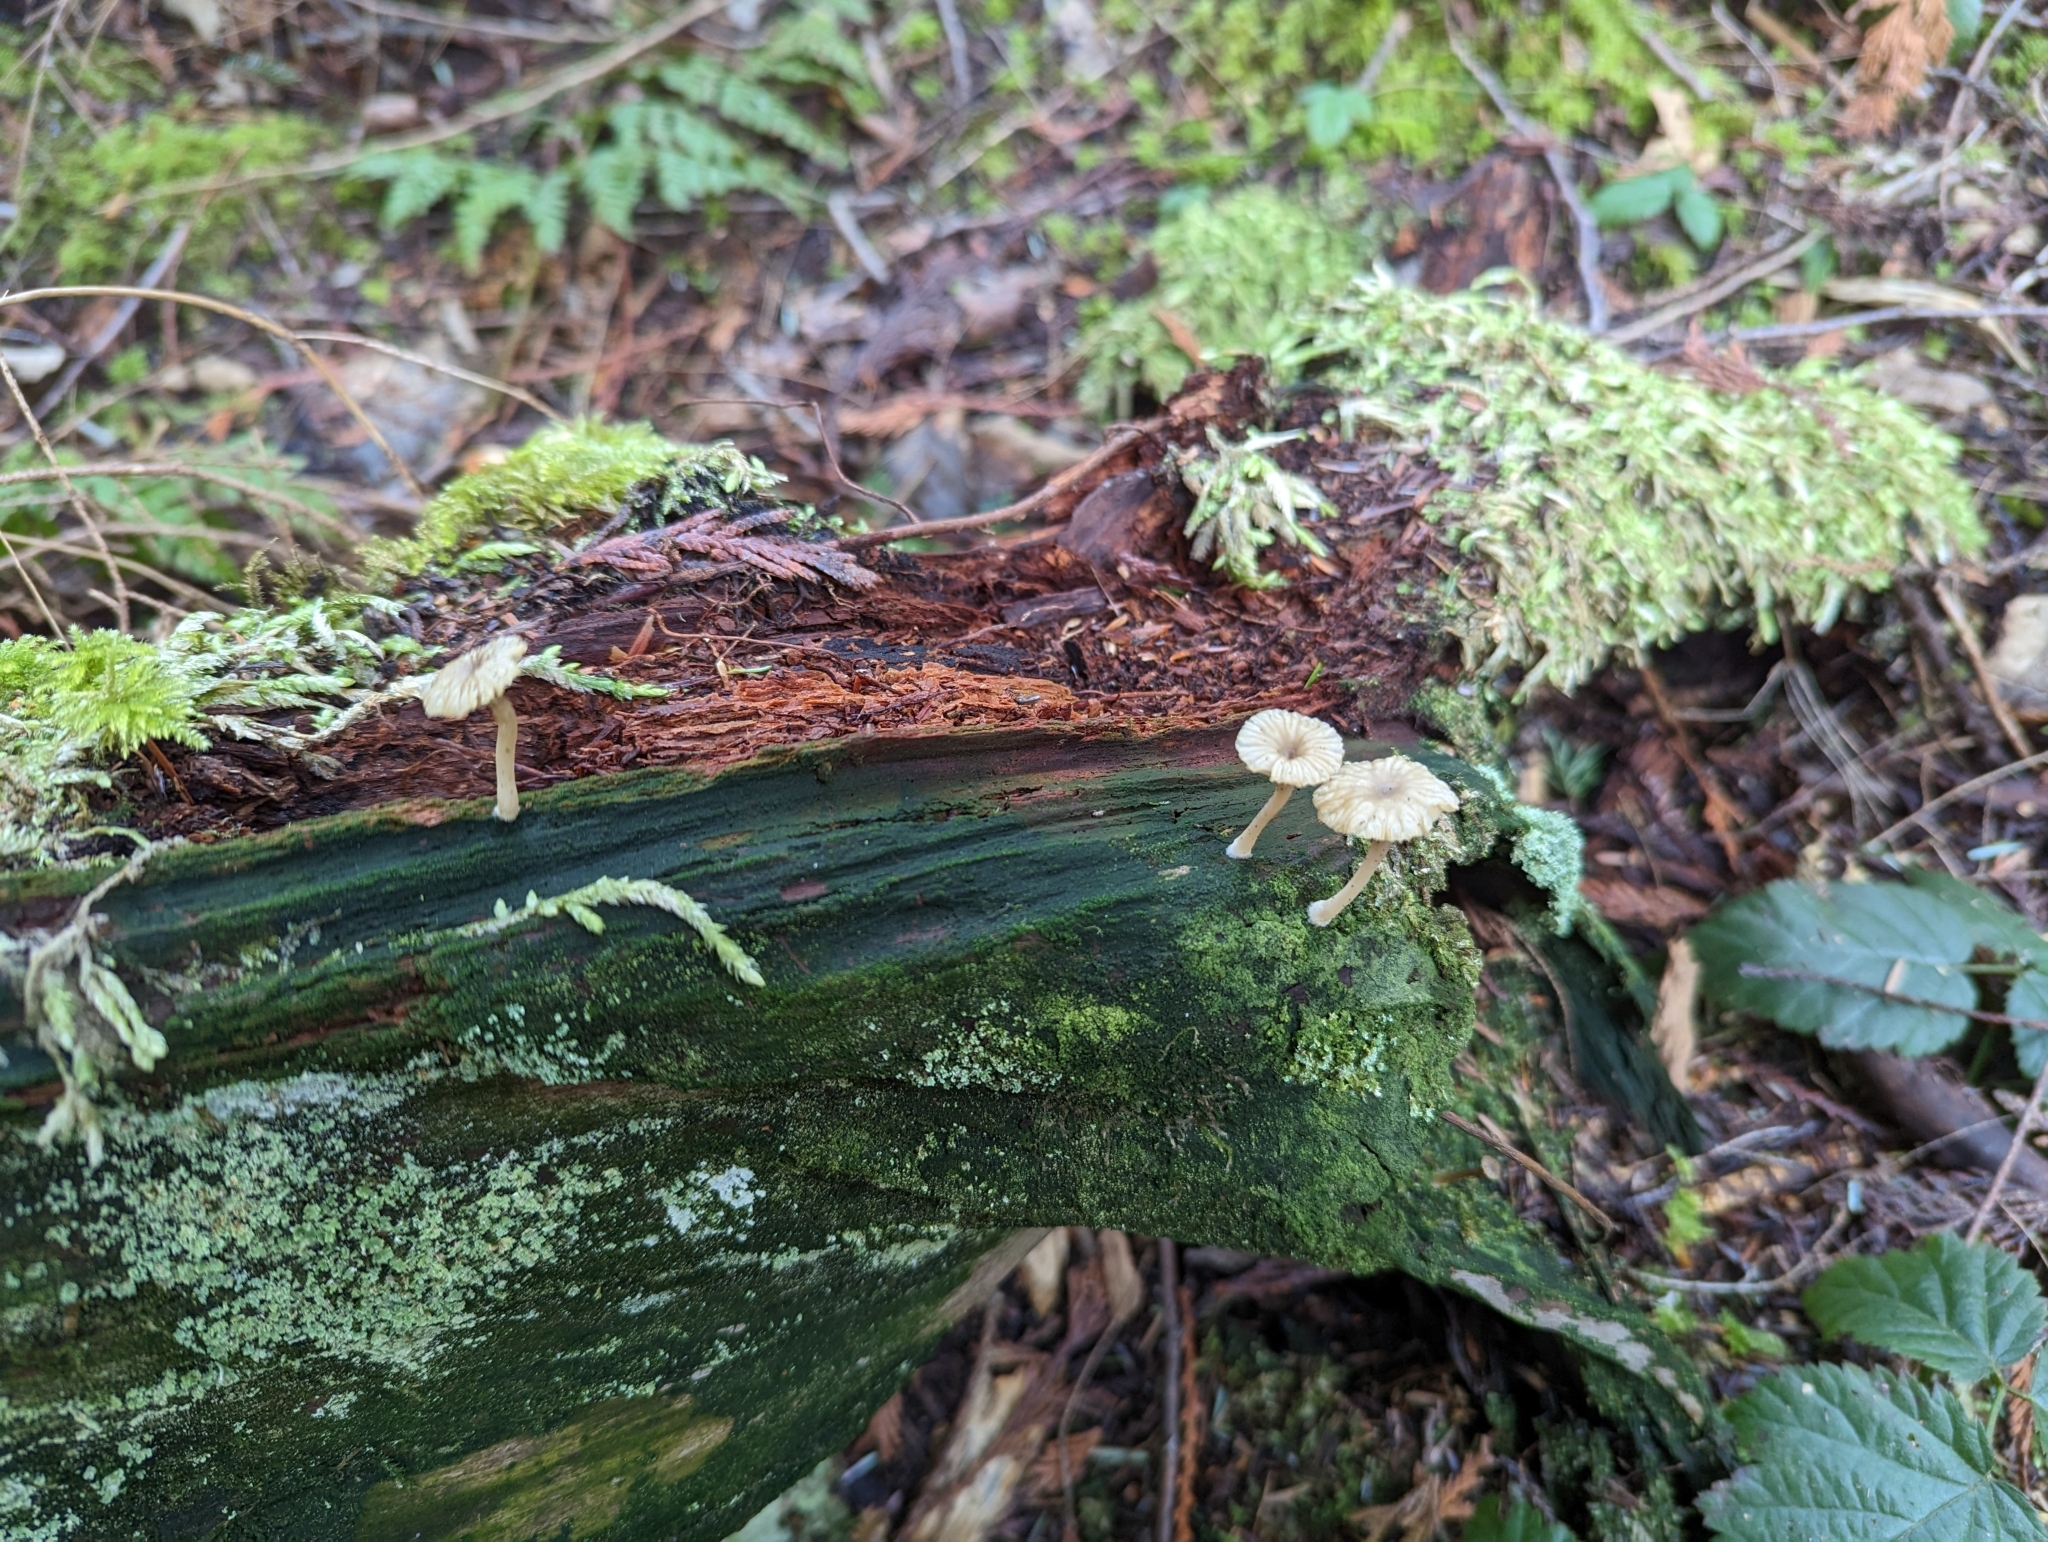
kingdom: Fungi
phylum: Basidiomycota
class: Agaricomycetes
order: Agaricales
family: Hygrophoraceae
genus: Lichenomphalia
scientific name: Lichenomphalia
